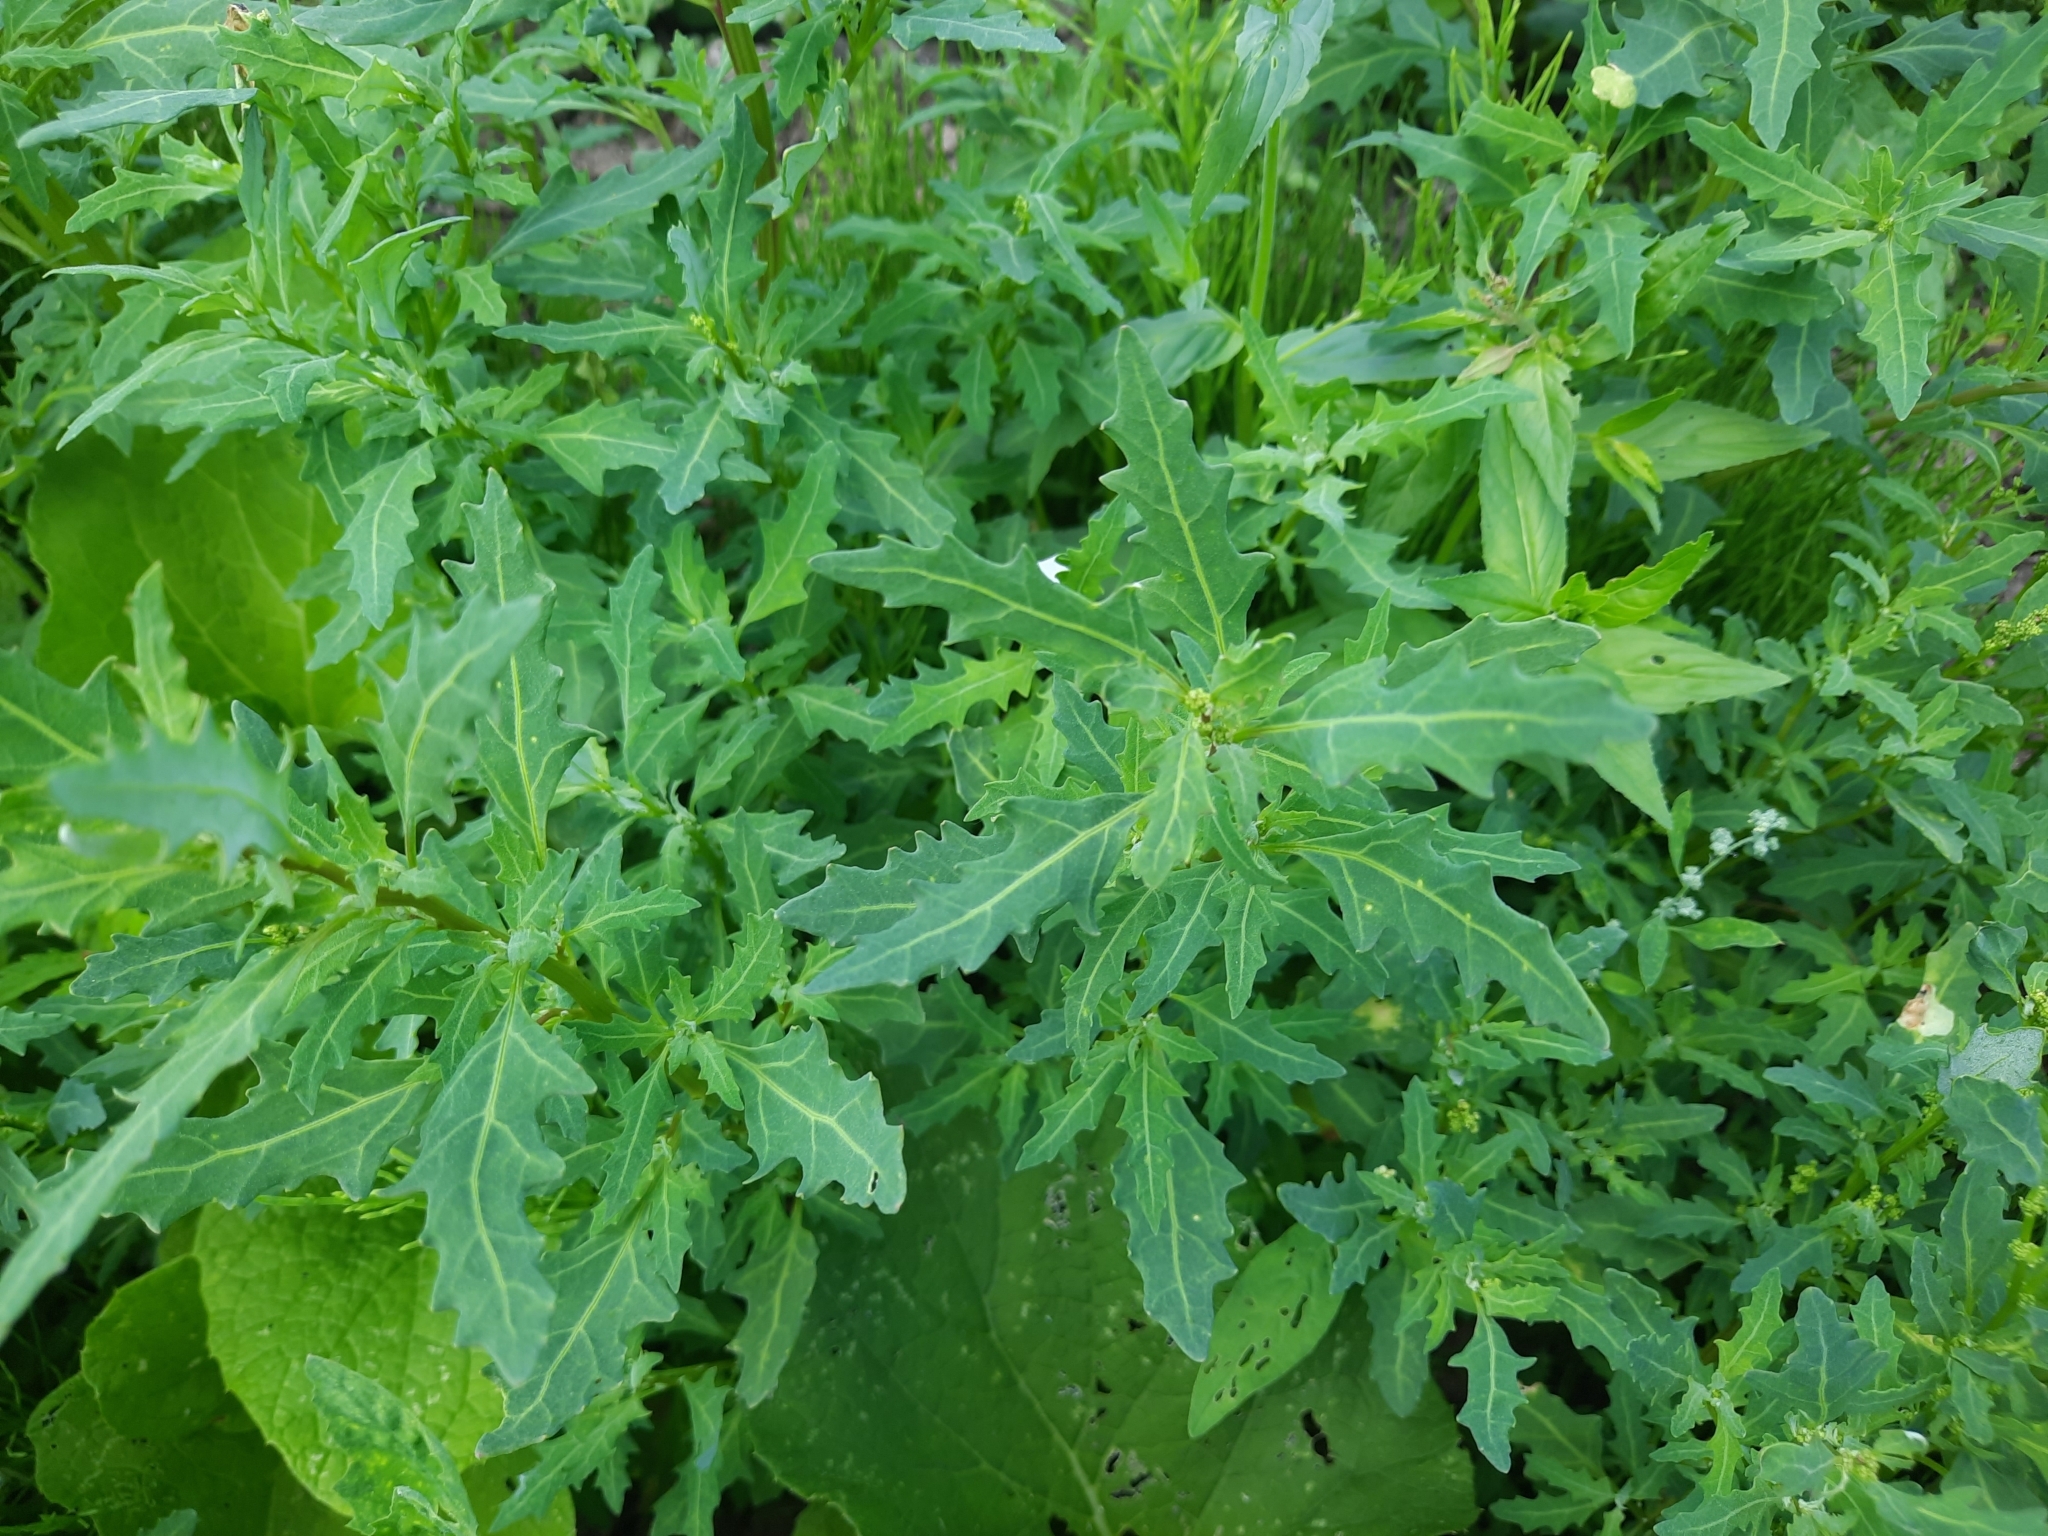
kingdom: Plantae
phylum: Tracheophyta
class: Magnoliopsida
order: Caryophyllales
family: Amaranthaceae
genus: Oxybasis
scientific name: Oxybasis glauca
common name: Glaucous goosefoot
